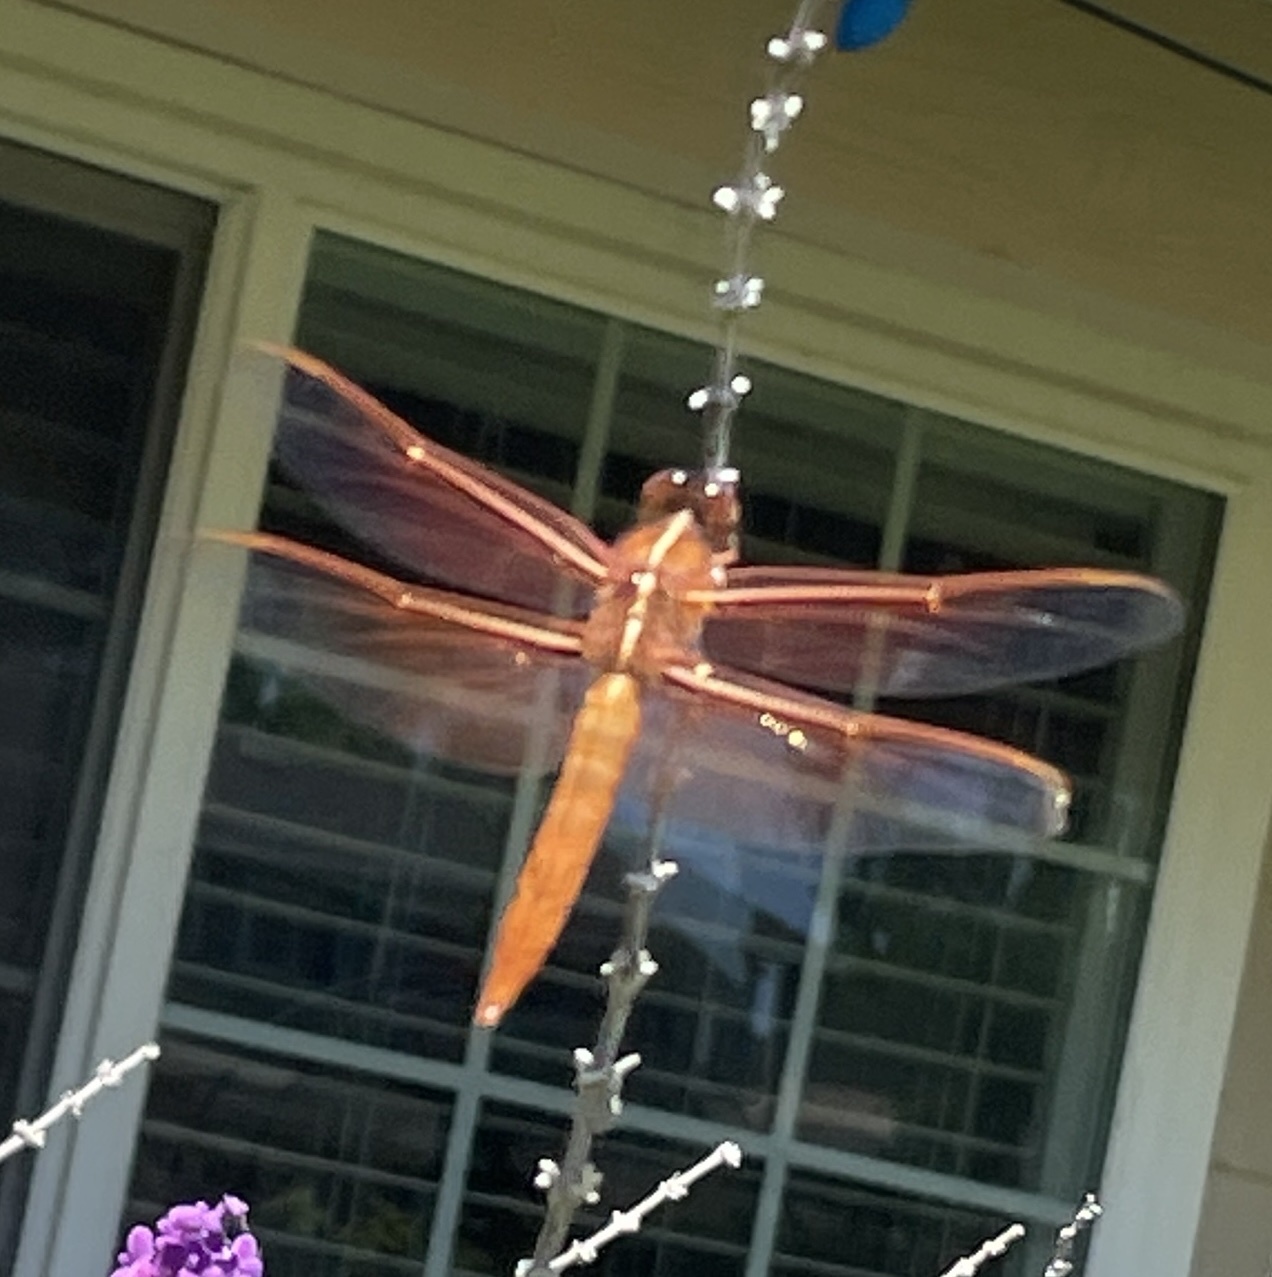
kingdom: Animalia
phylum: Arthropoda
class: Insecta
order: Odonata
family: Libellulidae
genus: Libellula
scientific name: Libellula saturata
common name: Flame skimmer
